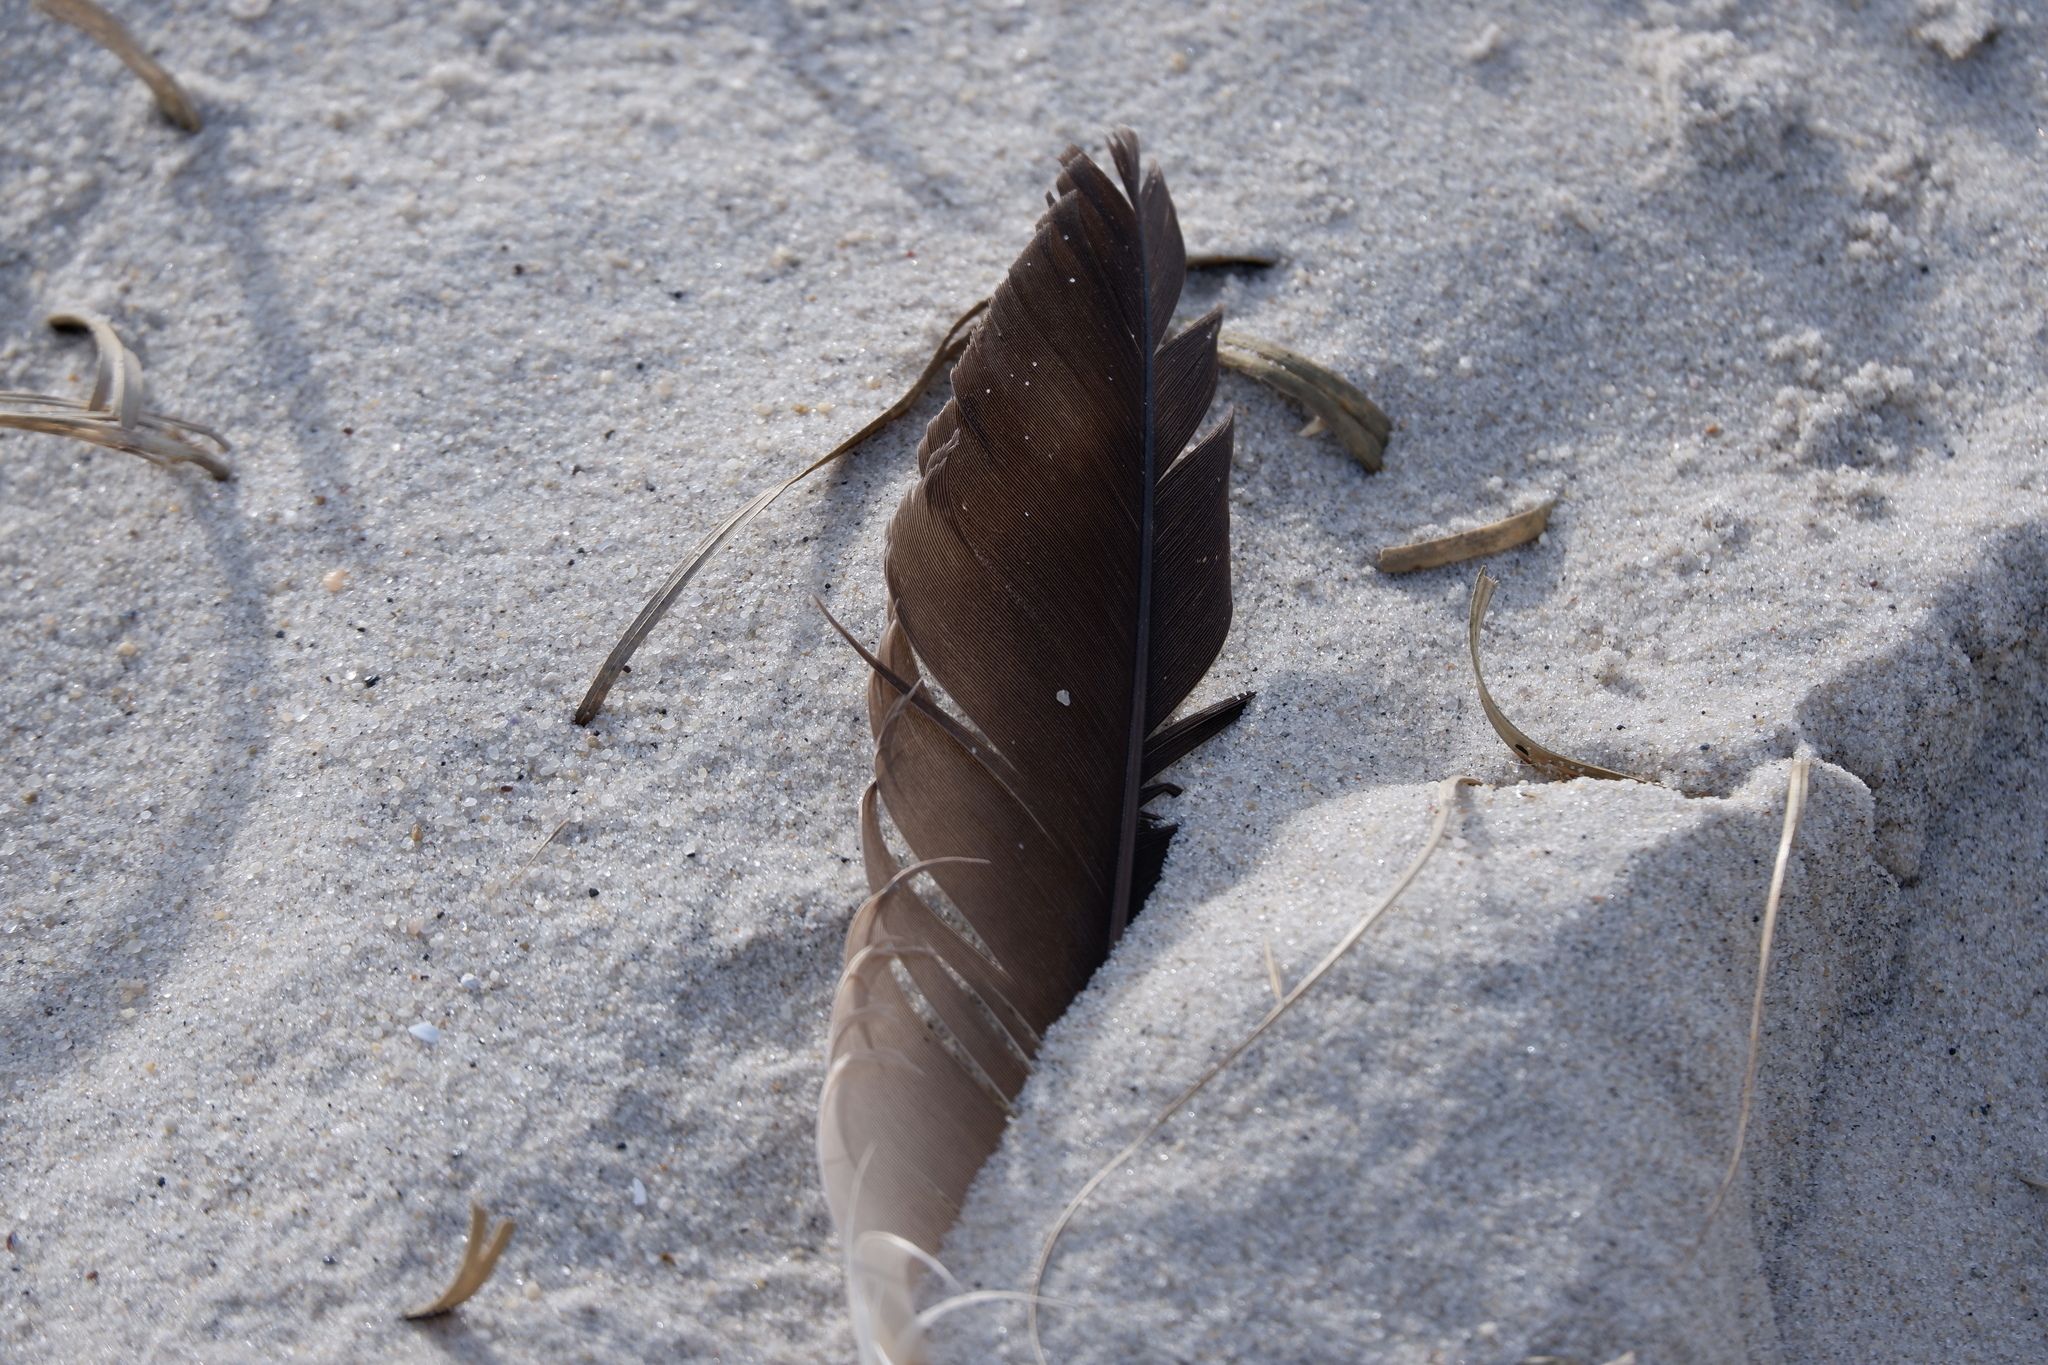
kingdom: Animalia
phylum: Chordata
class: Aves
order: Suliformes
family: Sulidae
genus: Morus
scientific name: Morus bassanus
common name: Northern gannet
